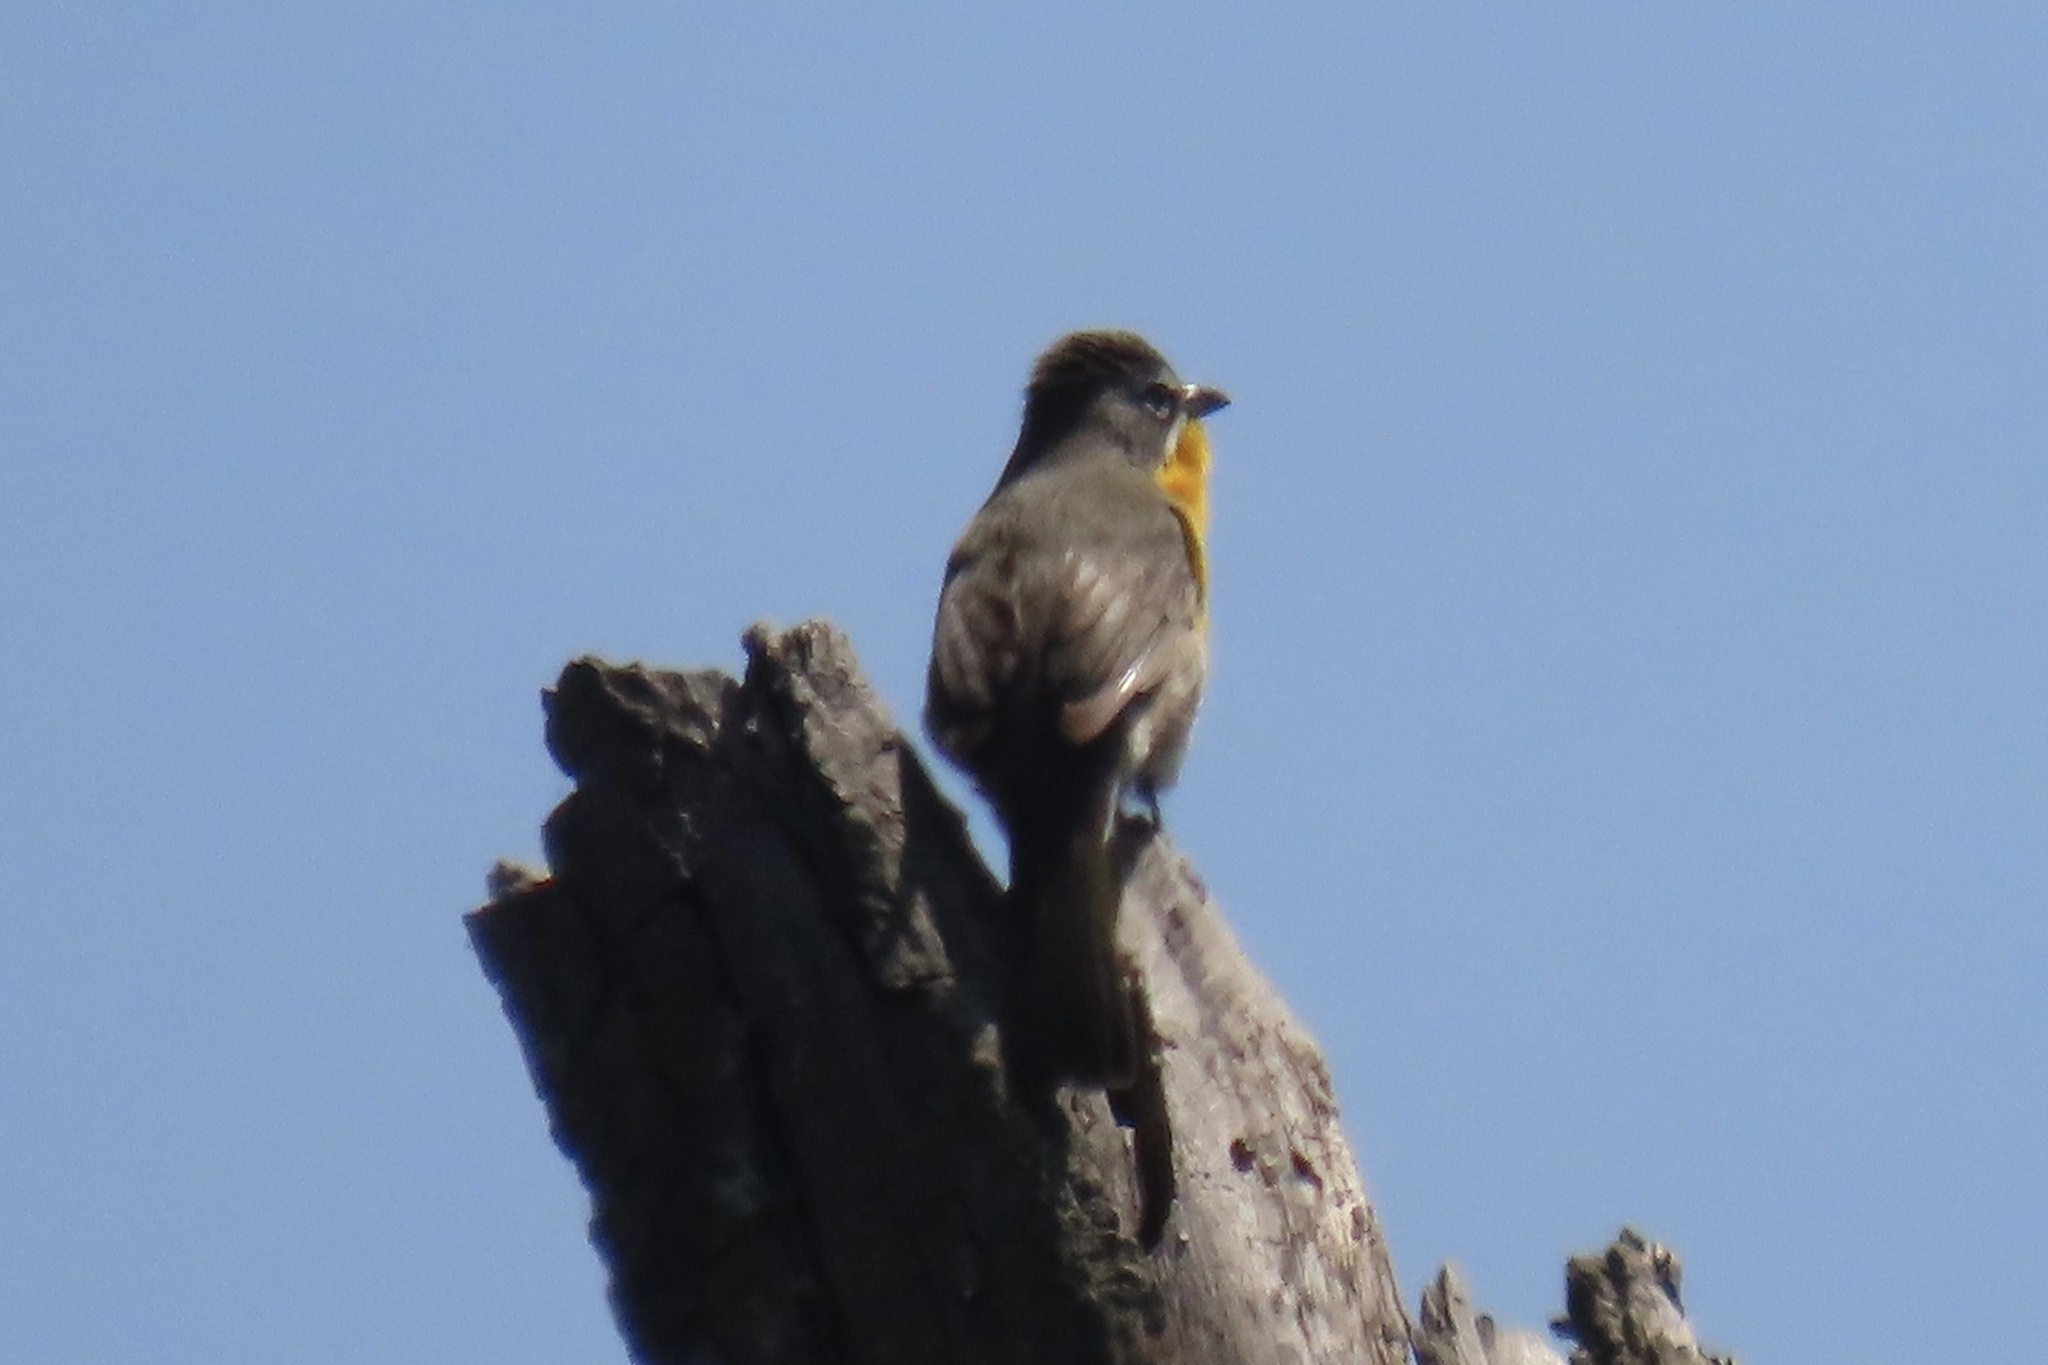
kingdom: Animalia
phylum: Chordata
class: Aves
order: Passeriformes
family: Parulidae
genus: Icteria
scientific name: Icteria virens
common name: Yellow-breasted chat
